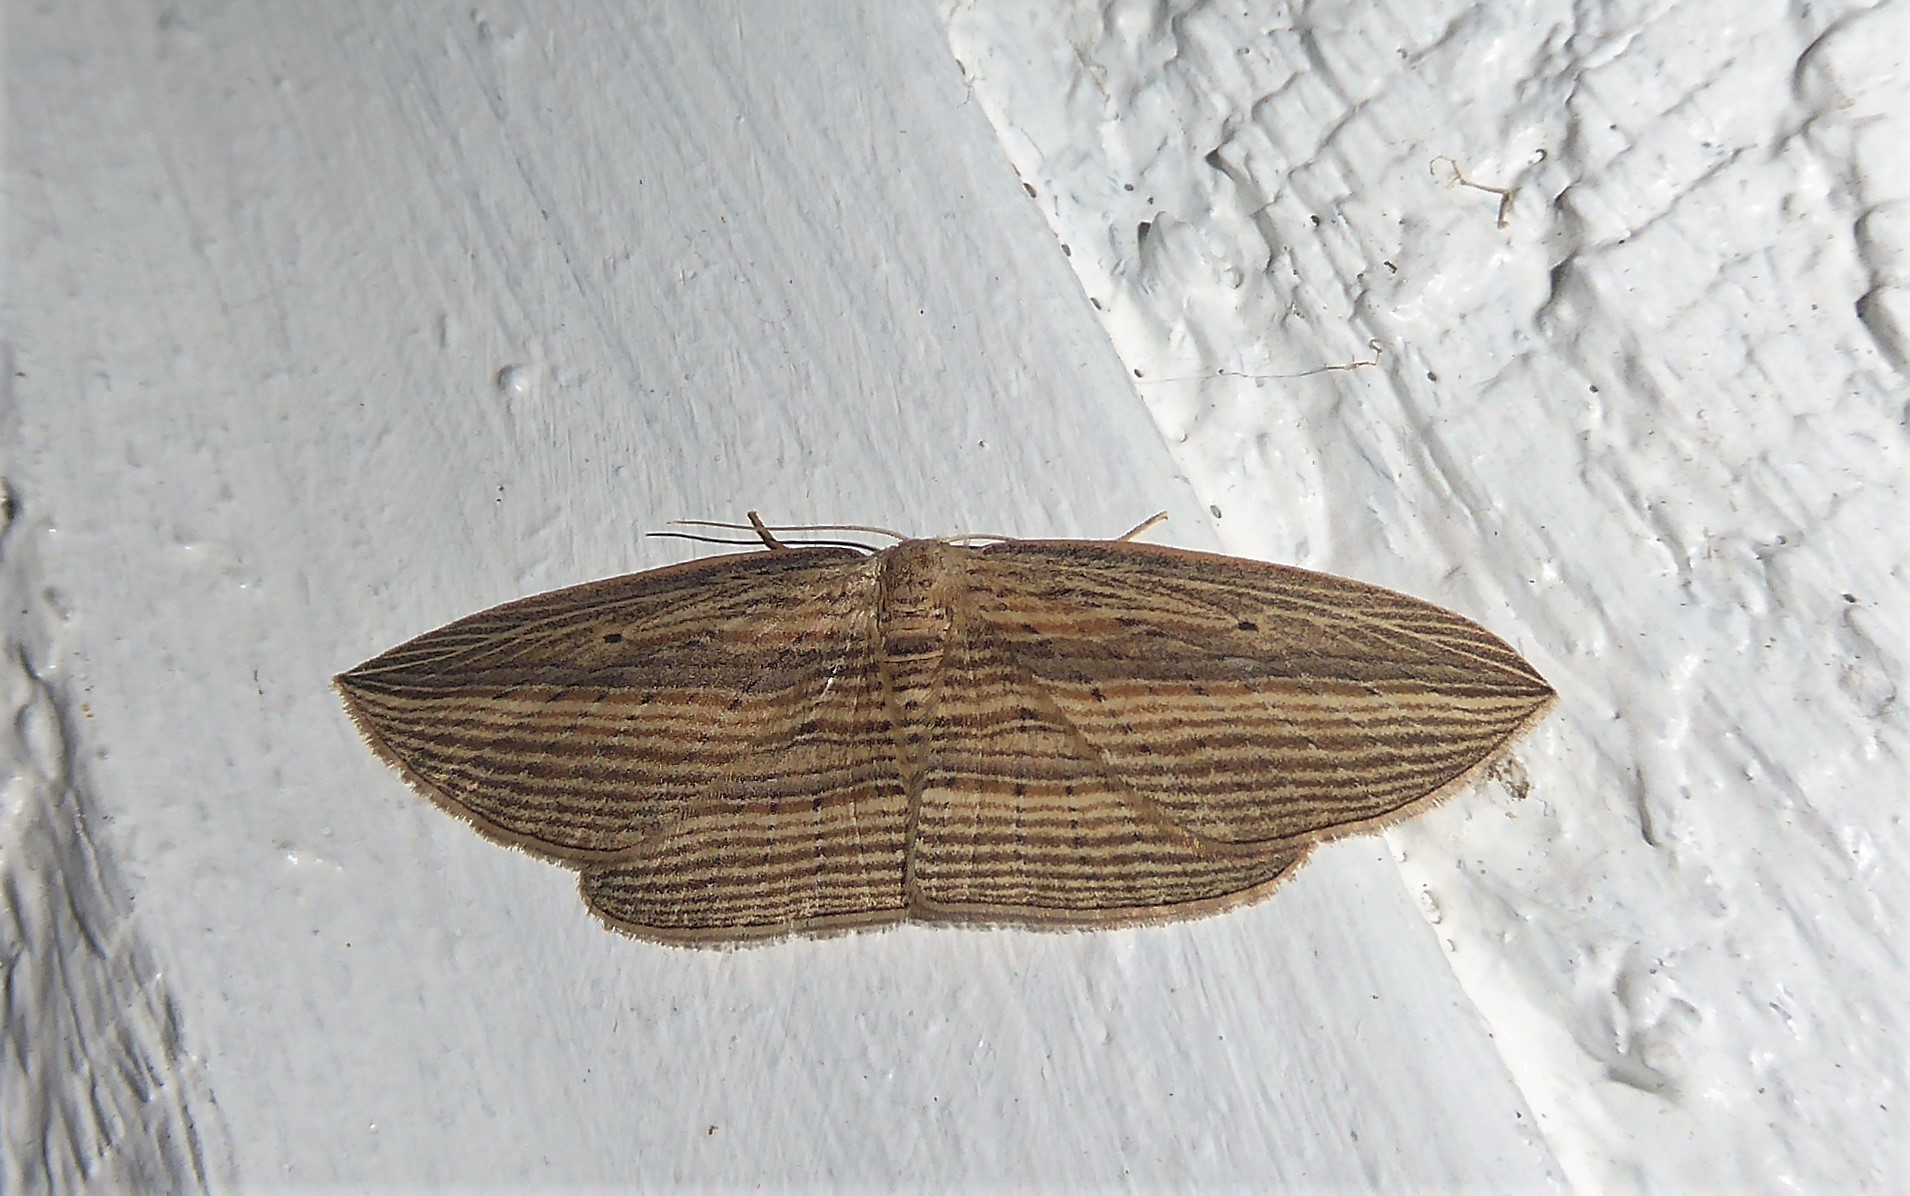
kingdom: Animalia
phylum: Arthropoda
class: Insecta
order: Lepidoptera
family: Geometridae
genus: Epiphryne
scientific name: Epiphryne verriculata
